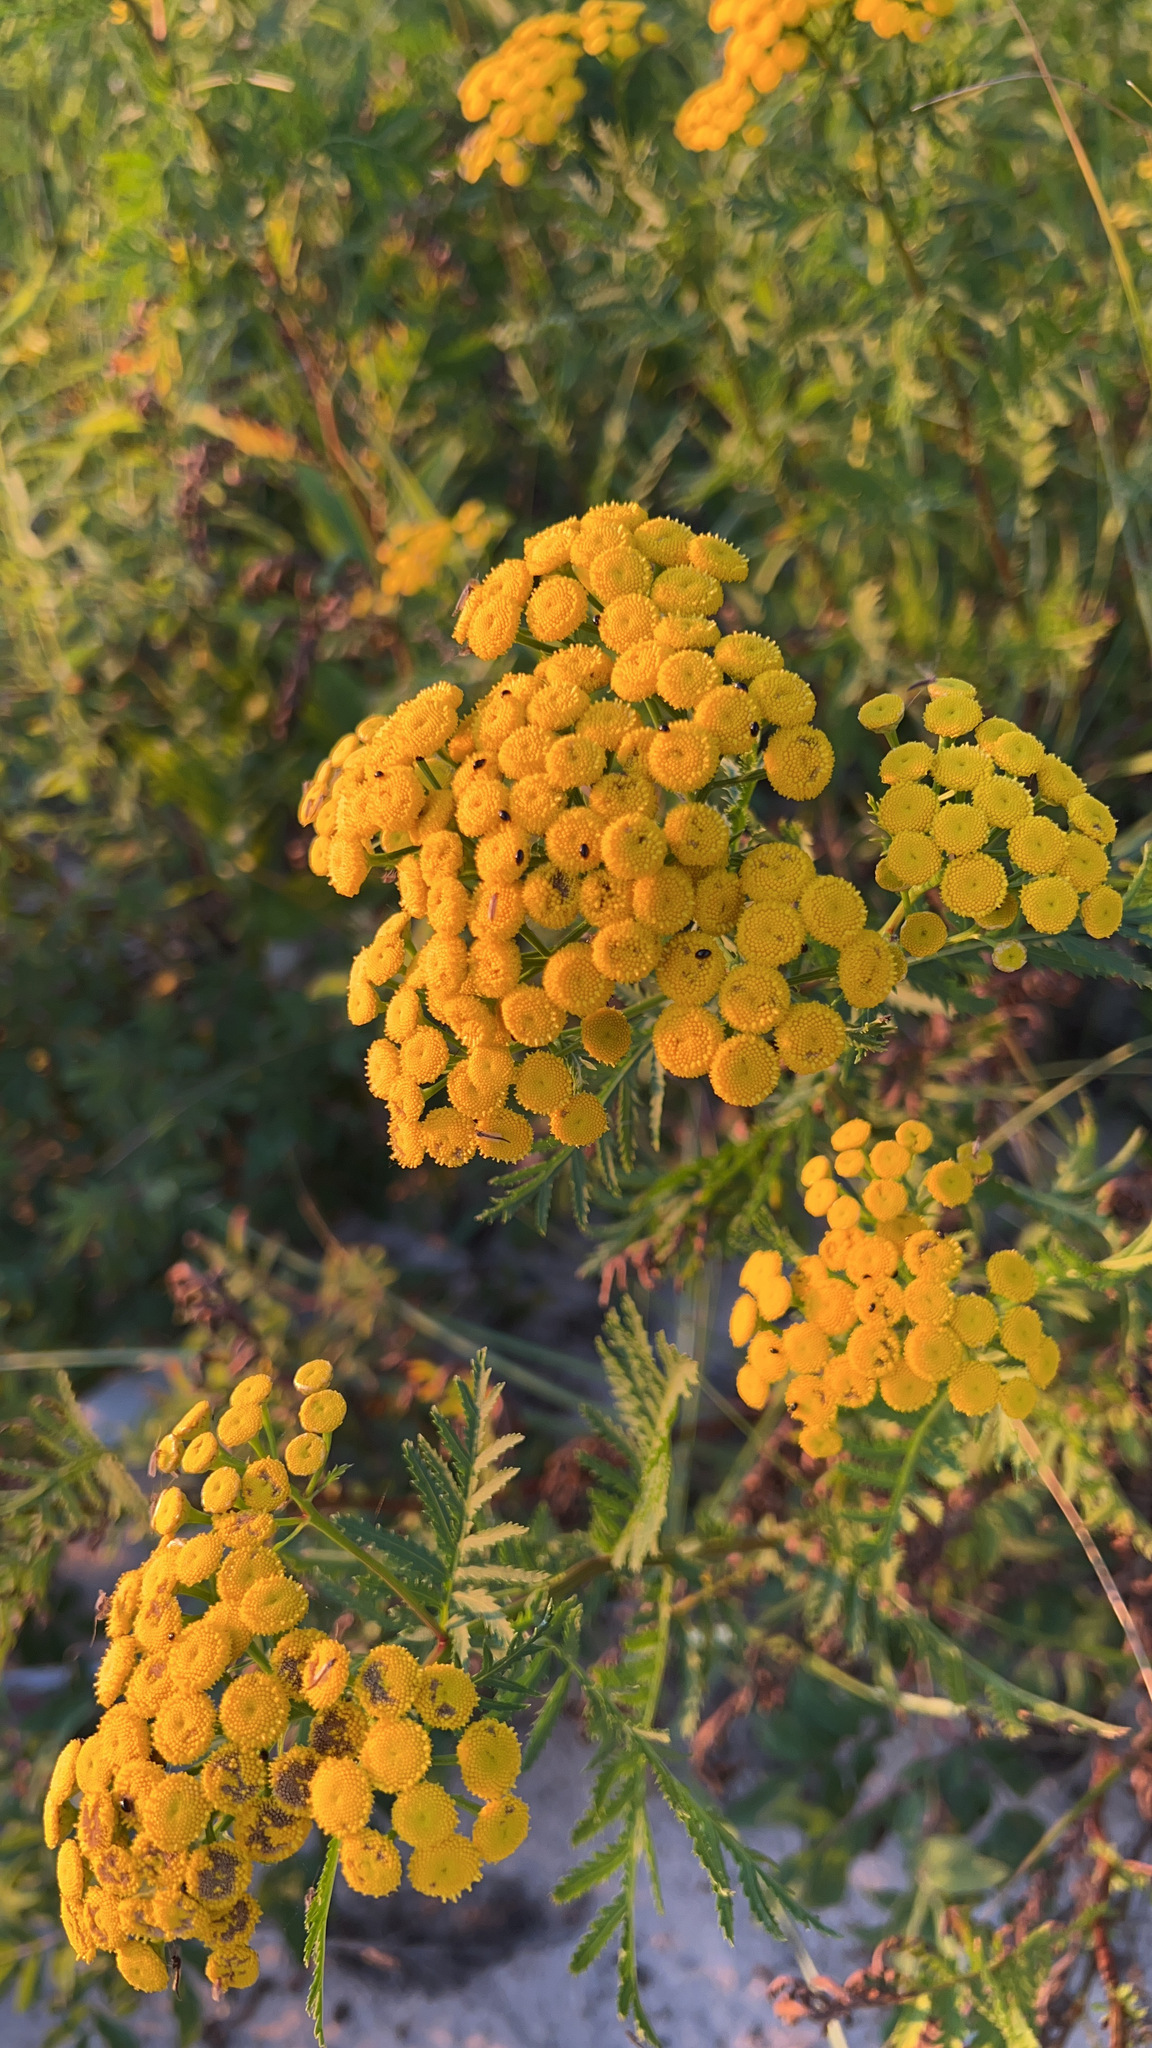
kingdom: Plantae
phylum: Tracheophyta
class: Magnoliopsida
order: Asterales
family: Asteraceae
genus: Tanacetum
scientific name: Tanacetum vulgare
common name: Common tansy
